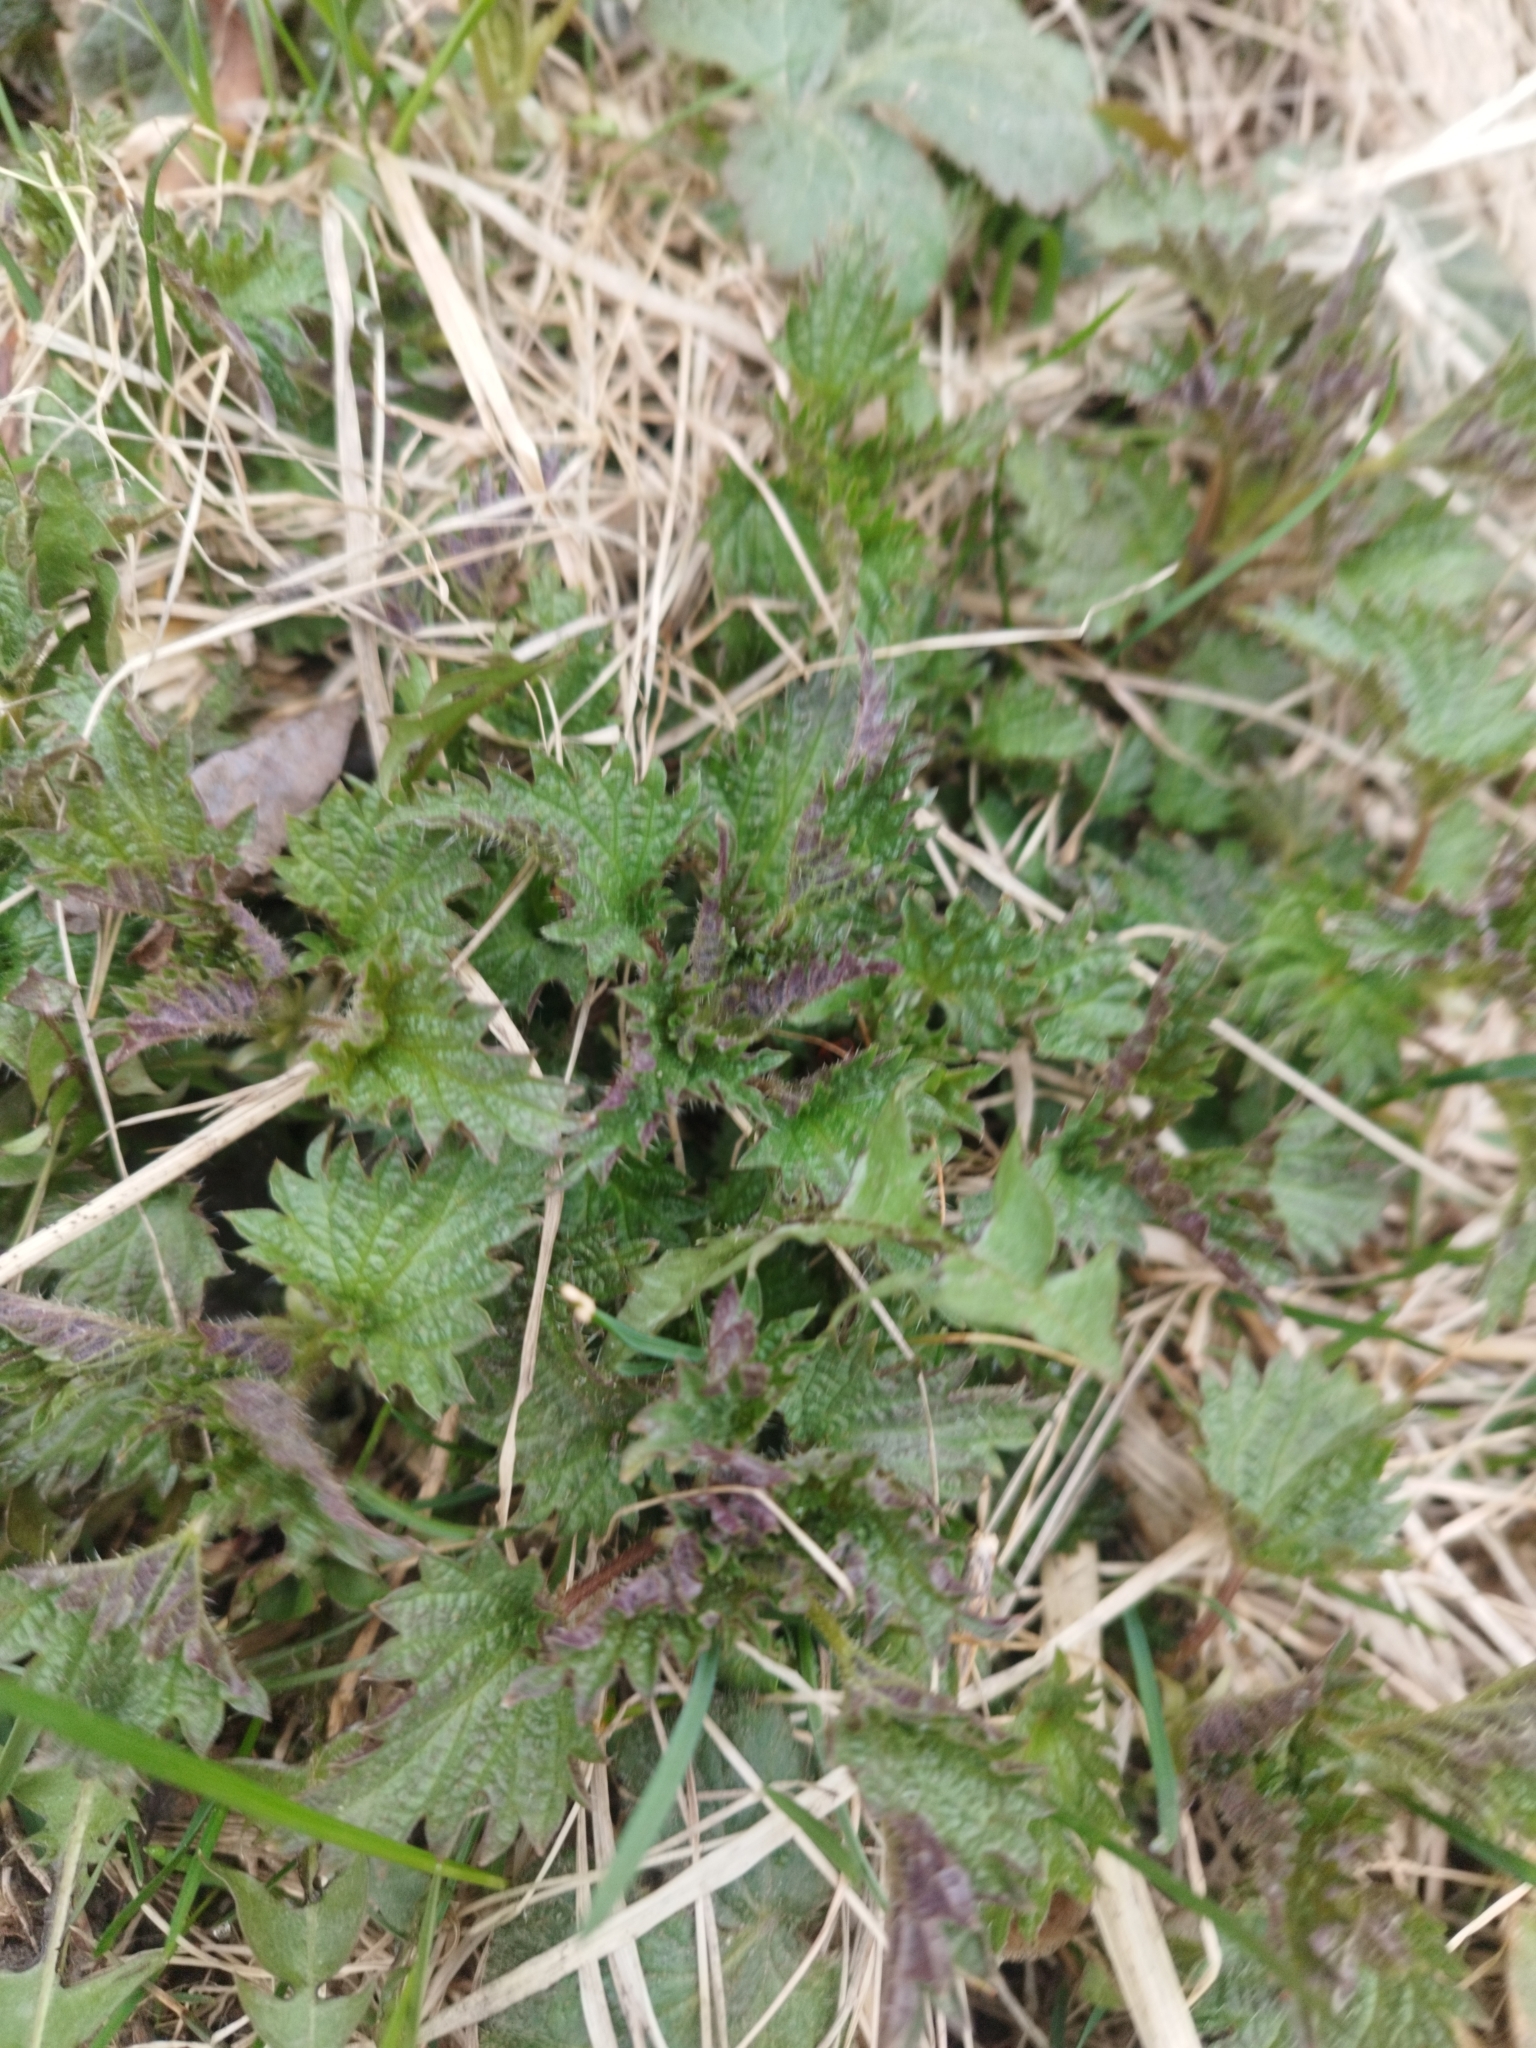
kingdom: Plantae
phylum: Tracheophyta
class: Magnoliopsida
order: Rosales
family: Urticaceae
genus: Urtica
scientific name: Urtica dioica
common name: Common nettle
